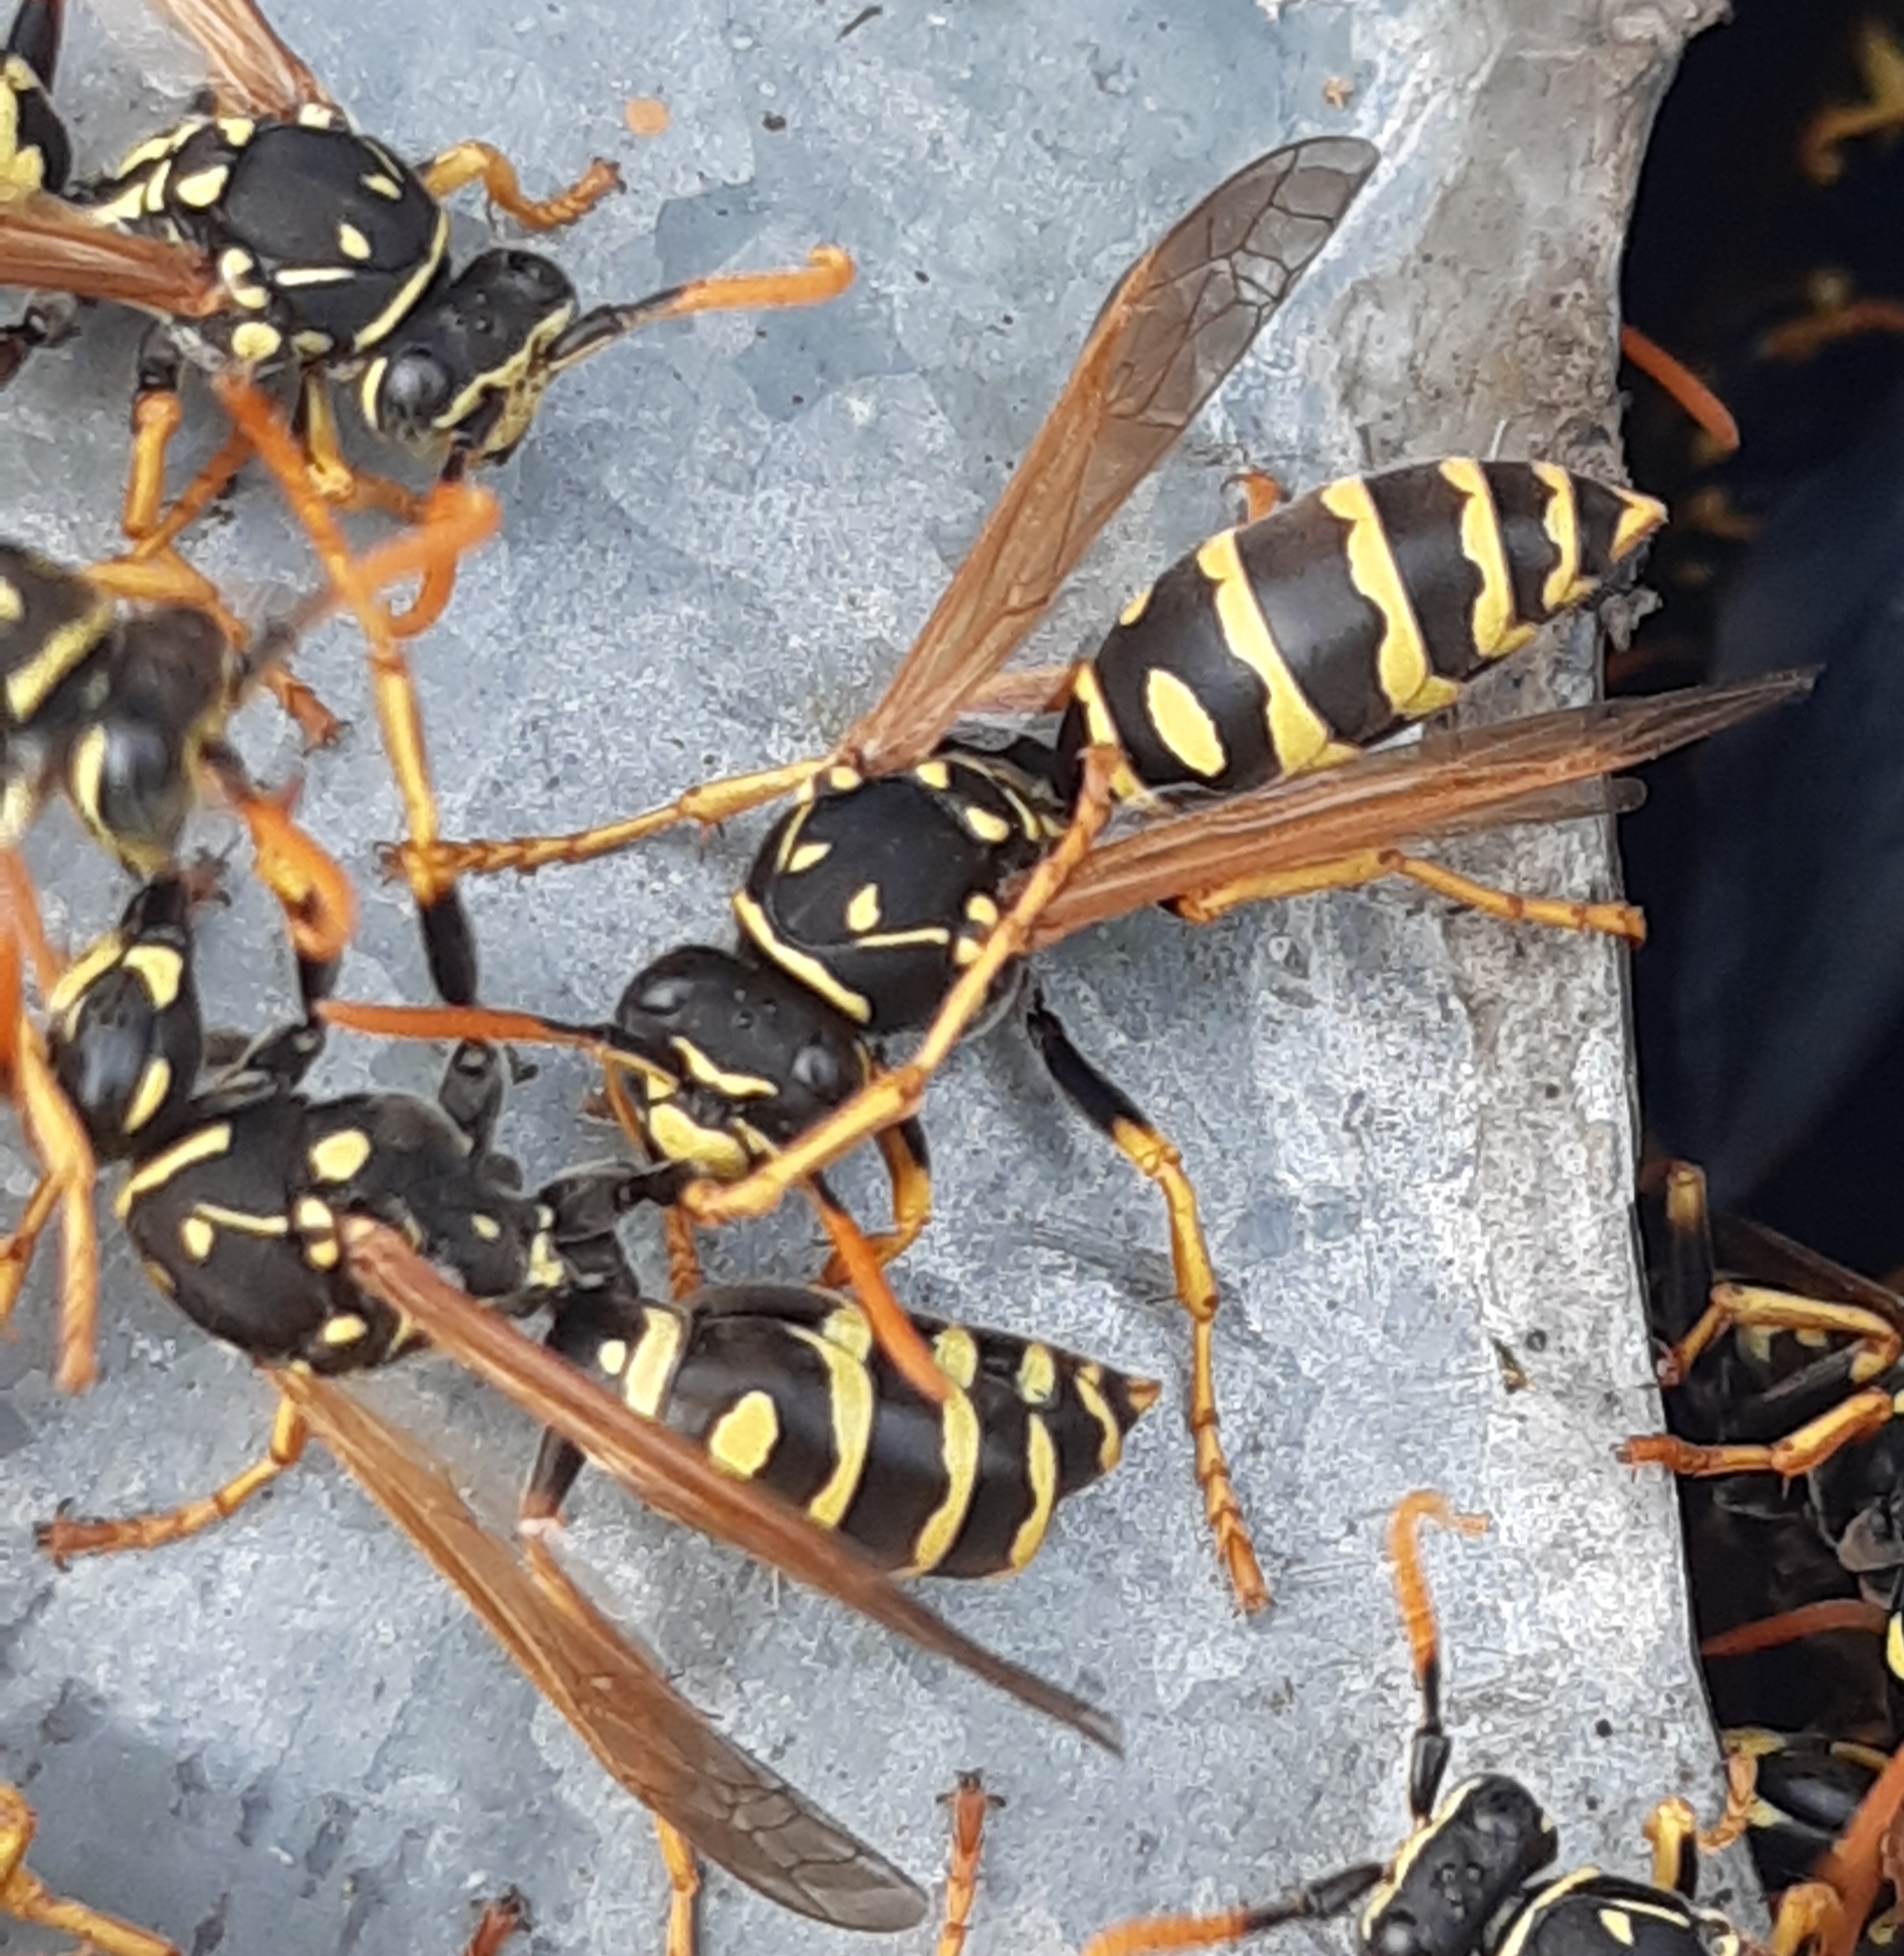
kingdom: Animalia
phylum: Arthropoda
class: Insecta
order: Hymenoptera
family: Eumenidae
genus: Polistes
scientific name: Polistes dominula
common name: Paper wasp
